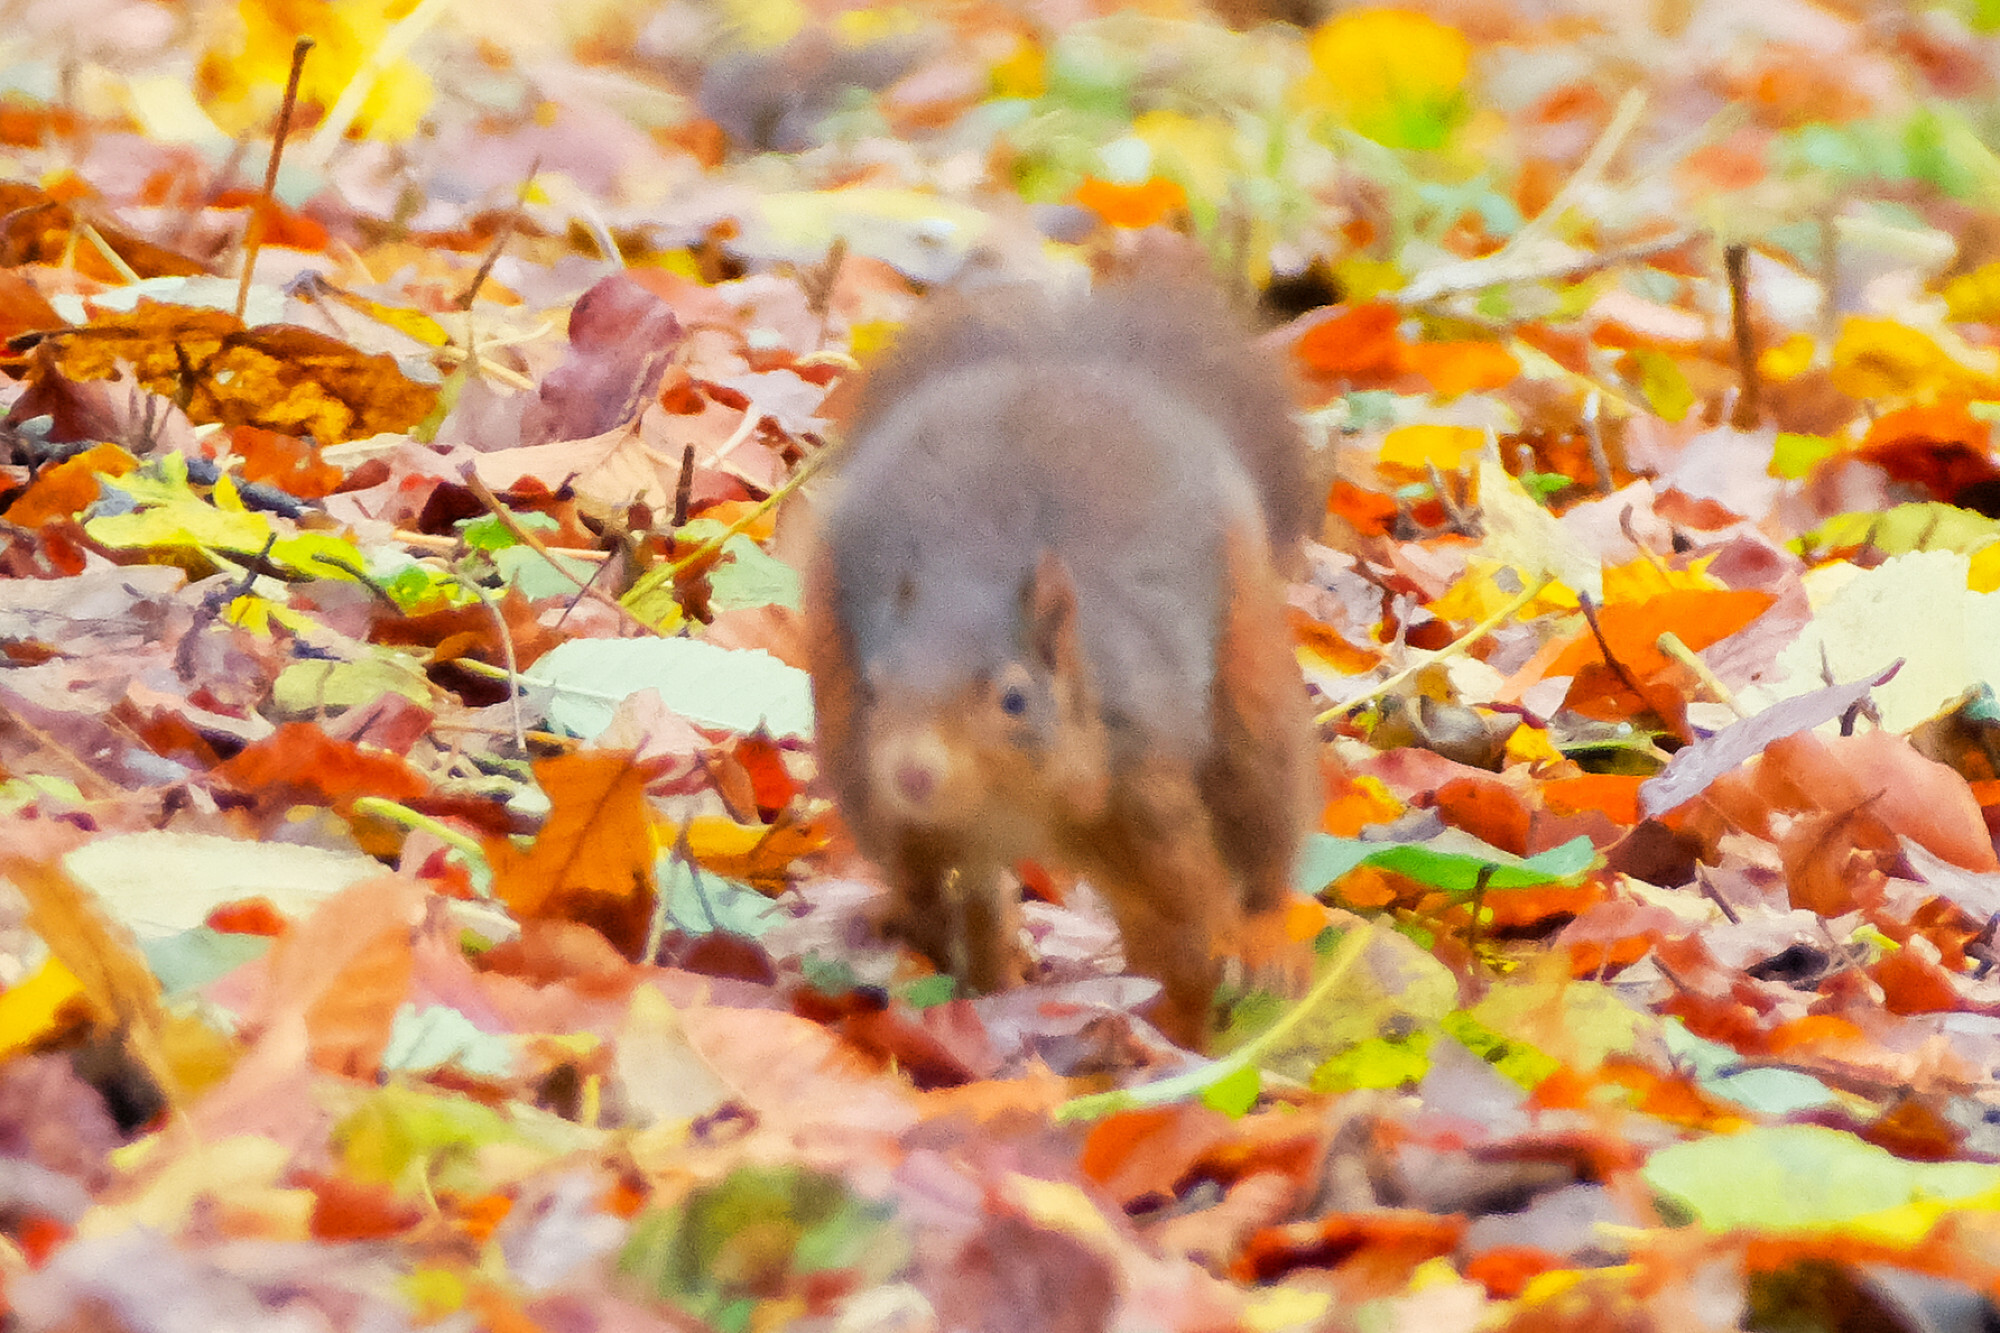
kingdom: Animalia
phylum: Chordata
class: Mammalia
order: Rodentia
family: Sciuridae
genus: Sciurus
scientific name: Sciurus vulgaris
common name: Eurasian red squirrel
